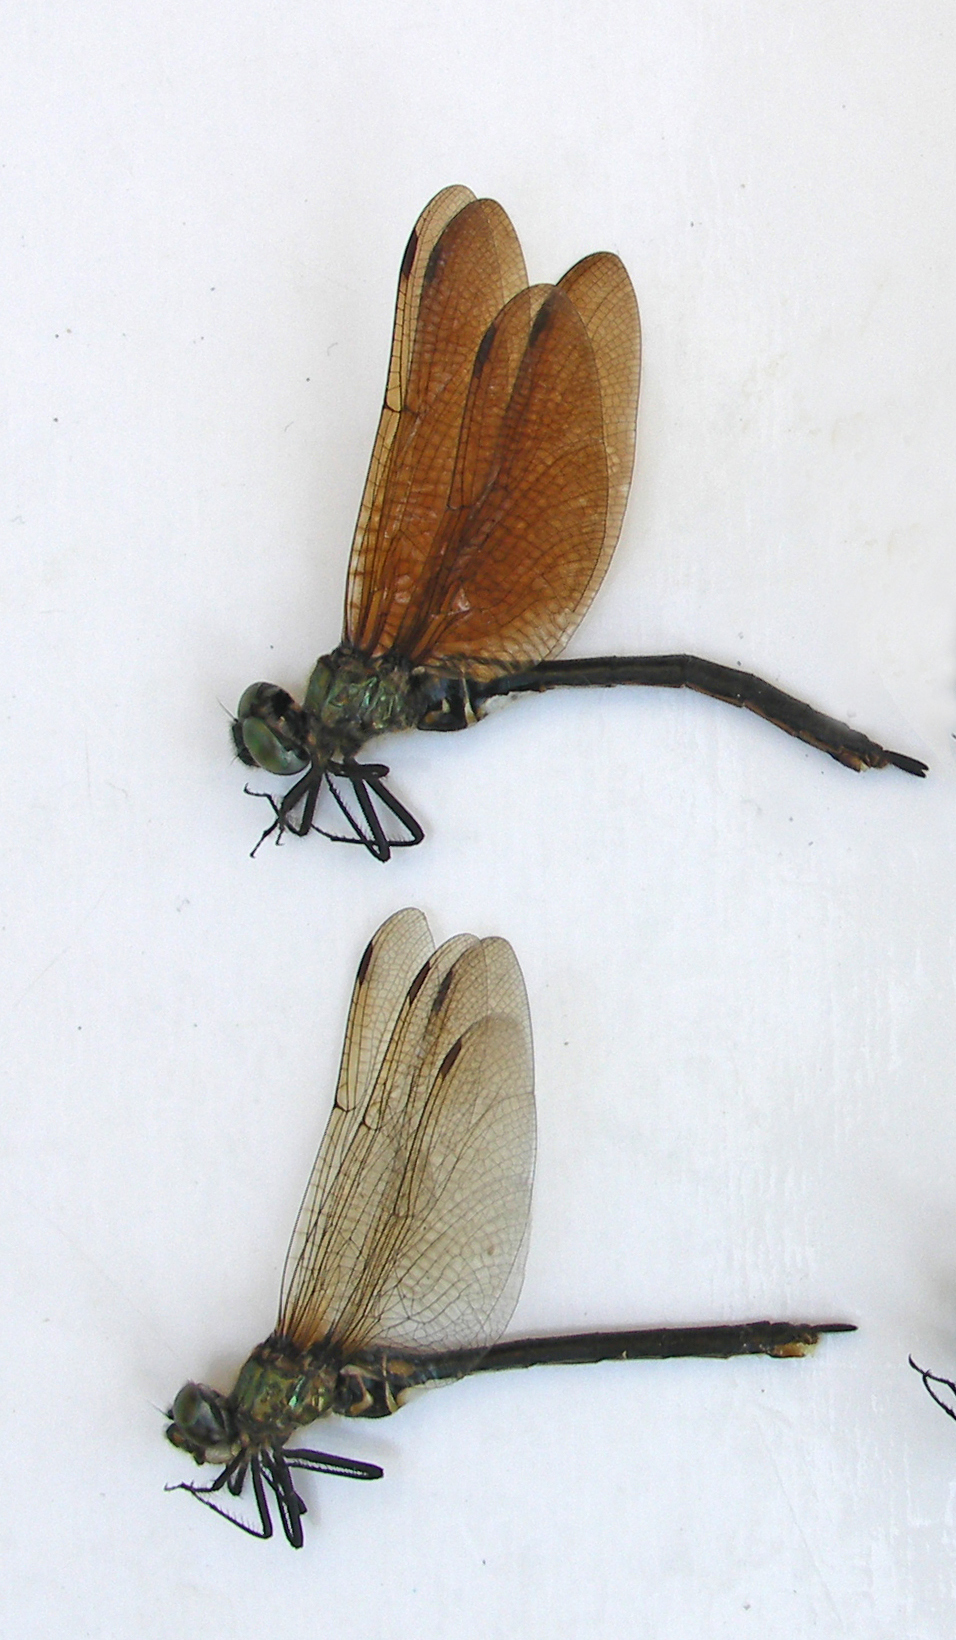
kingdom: Animalia
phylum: Arthropoda
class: Insecta
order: Odonata
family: Corduliidae
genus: Somatochlora
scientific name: Somatochlora arctica
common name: Northern emerald
